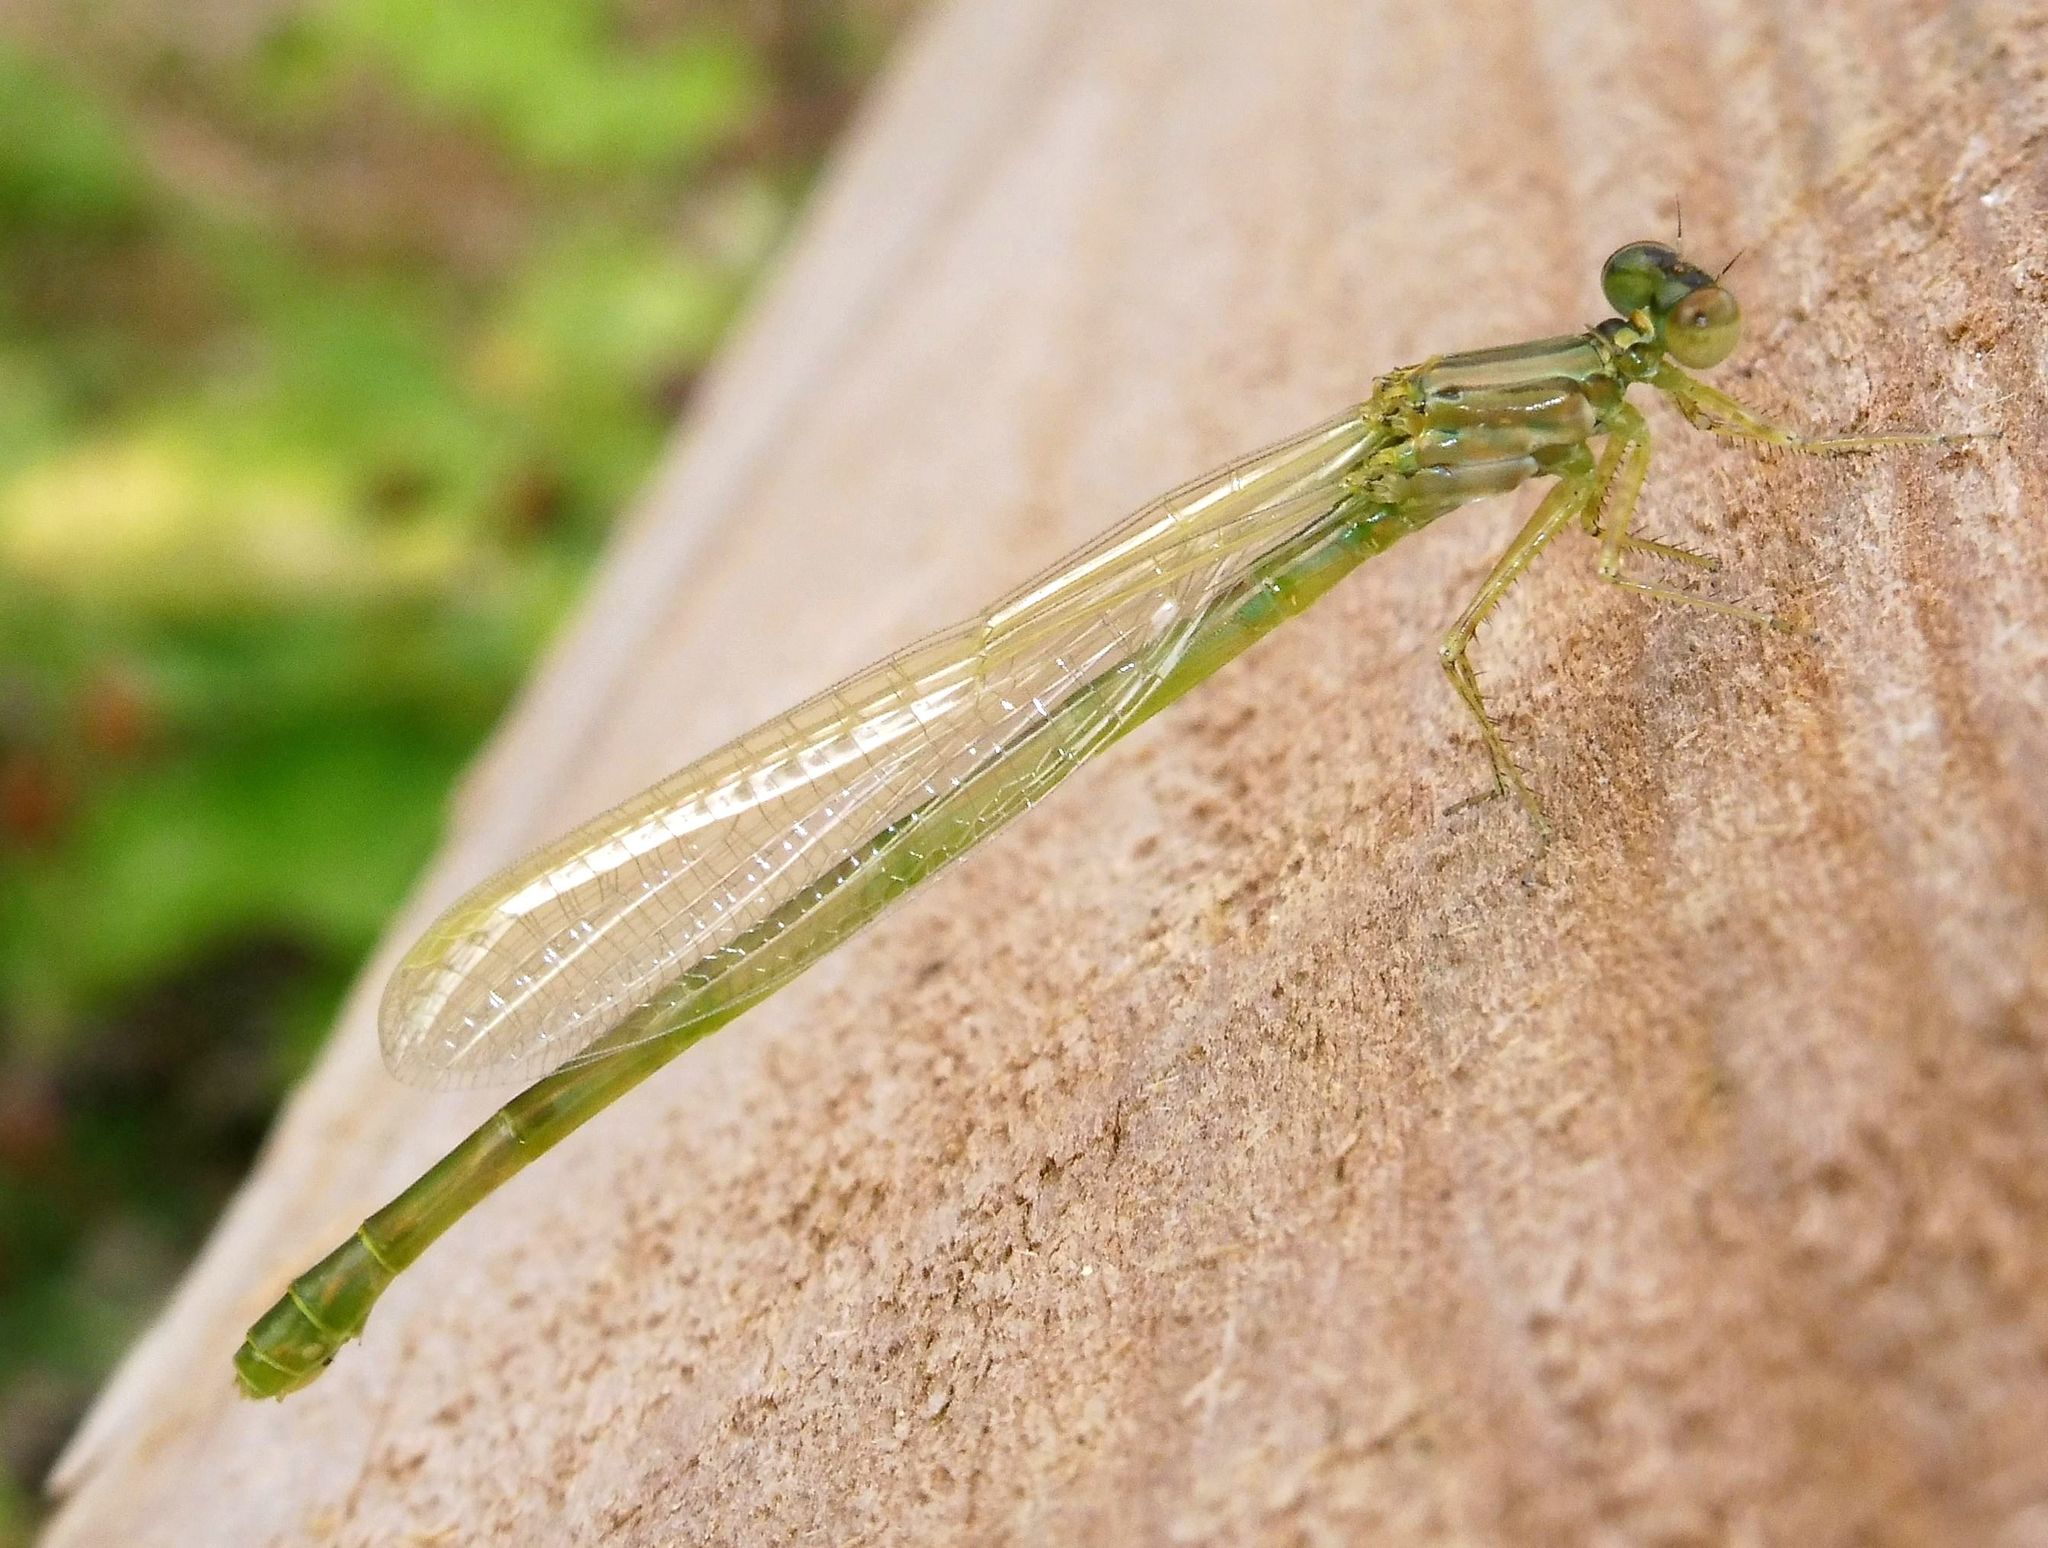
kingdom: Animalia
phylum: Arthropoda
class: Insecta
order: Odonata
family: Coenagrionidae
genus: Enallagma
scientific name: Enallagma cyathigerum
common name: Common blue damselfly
